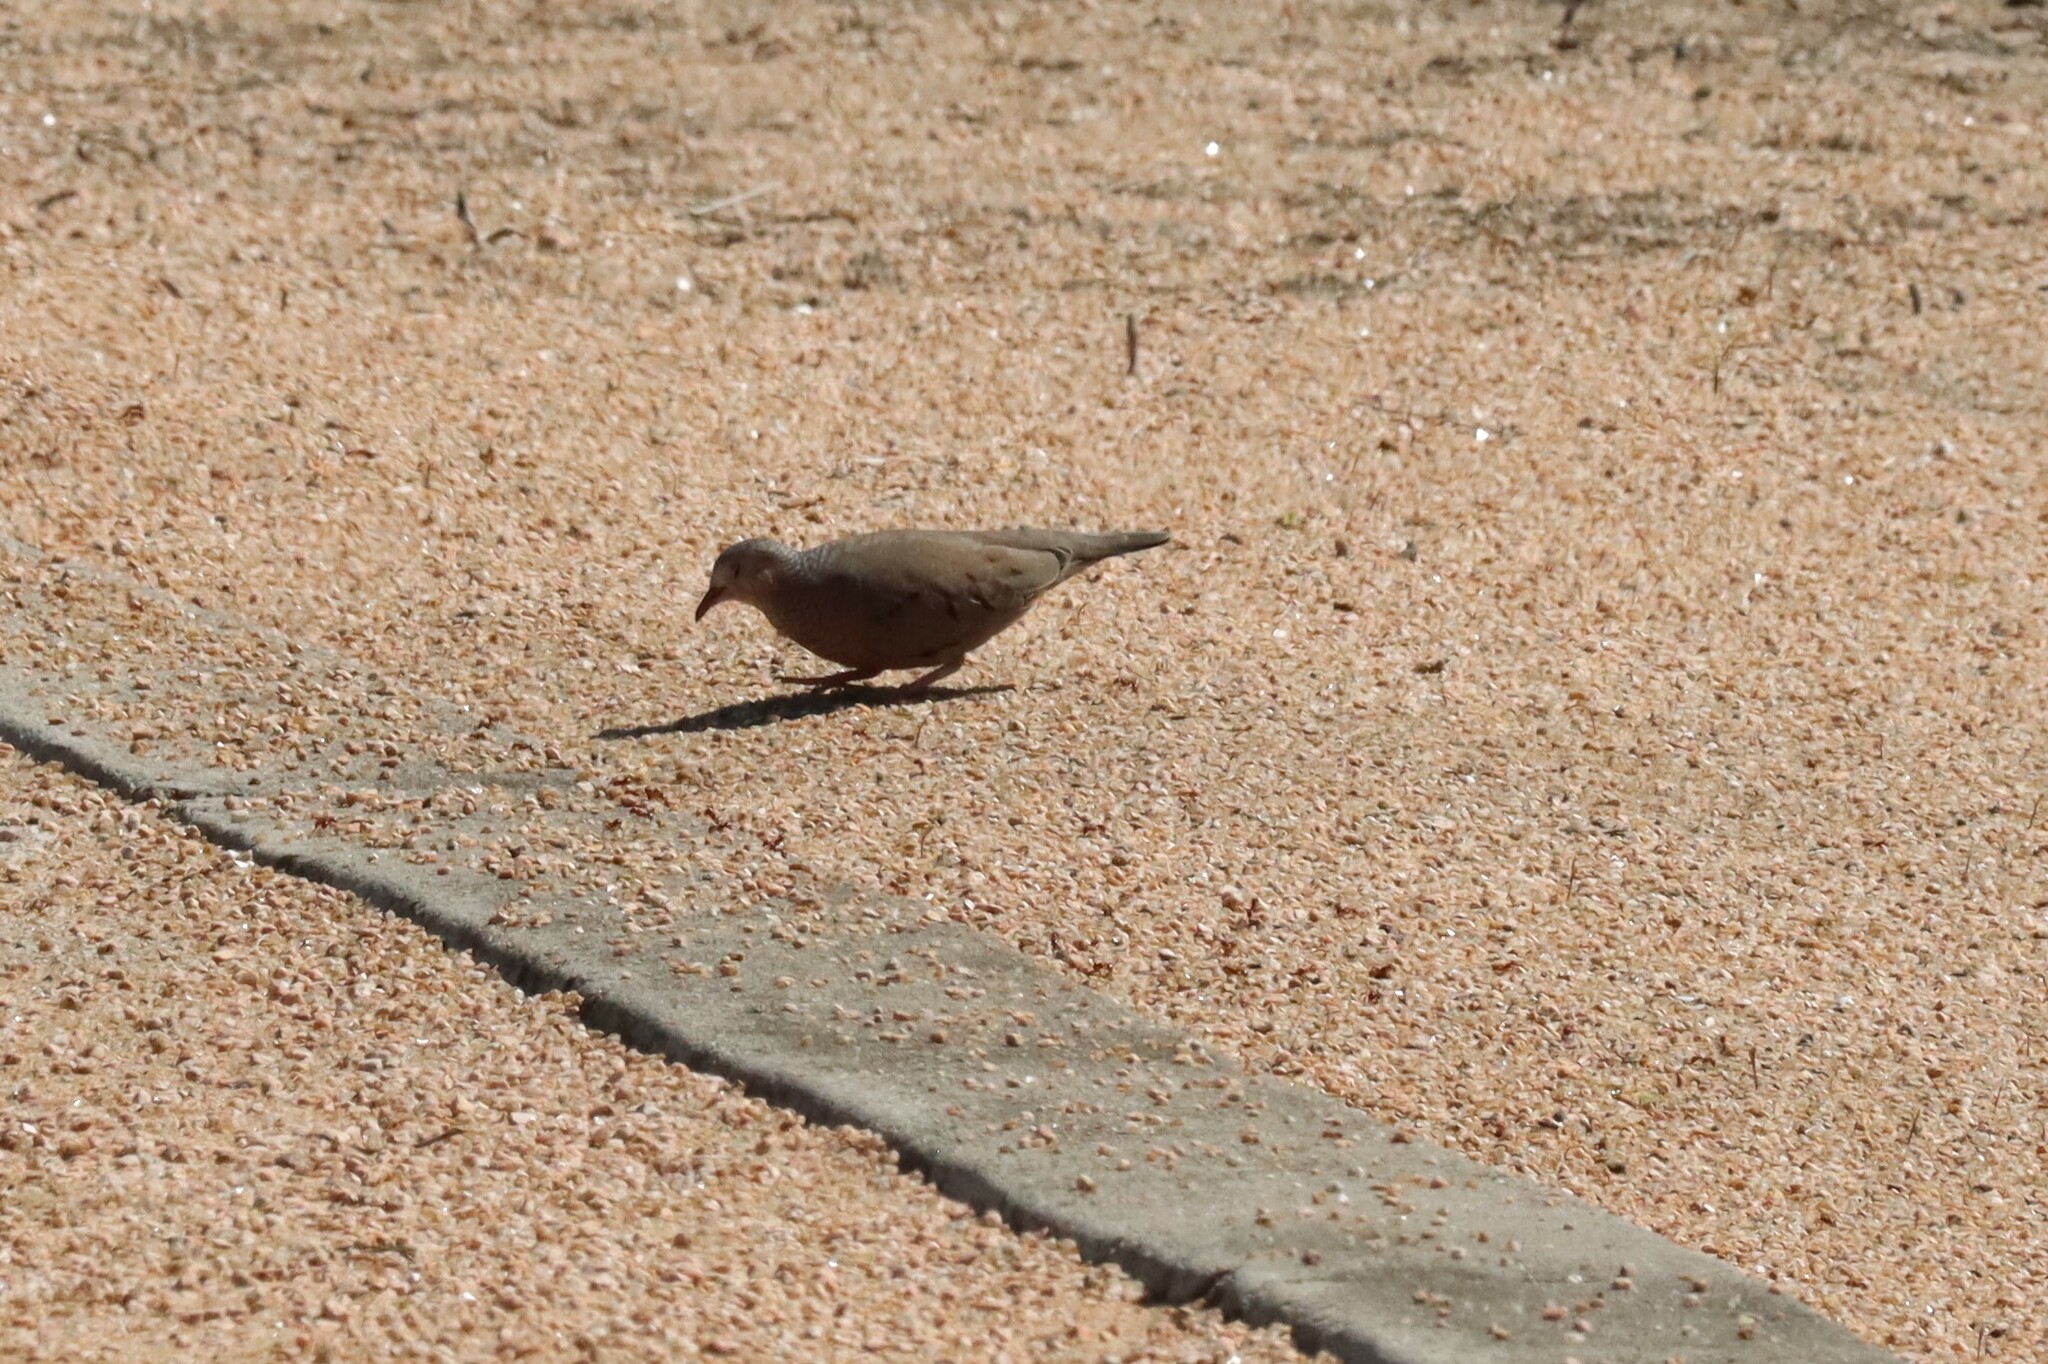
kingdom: Animalia
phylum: Chordata
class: Aves
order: Columbiformes
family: Columbidae
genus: Columbina
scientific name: Columbina passerina
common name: Common ground-dove
